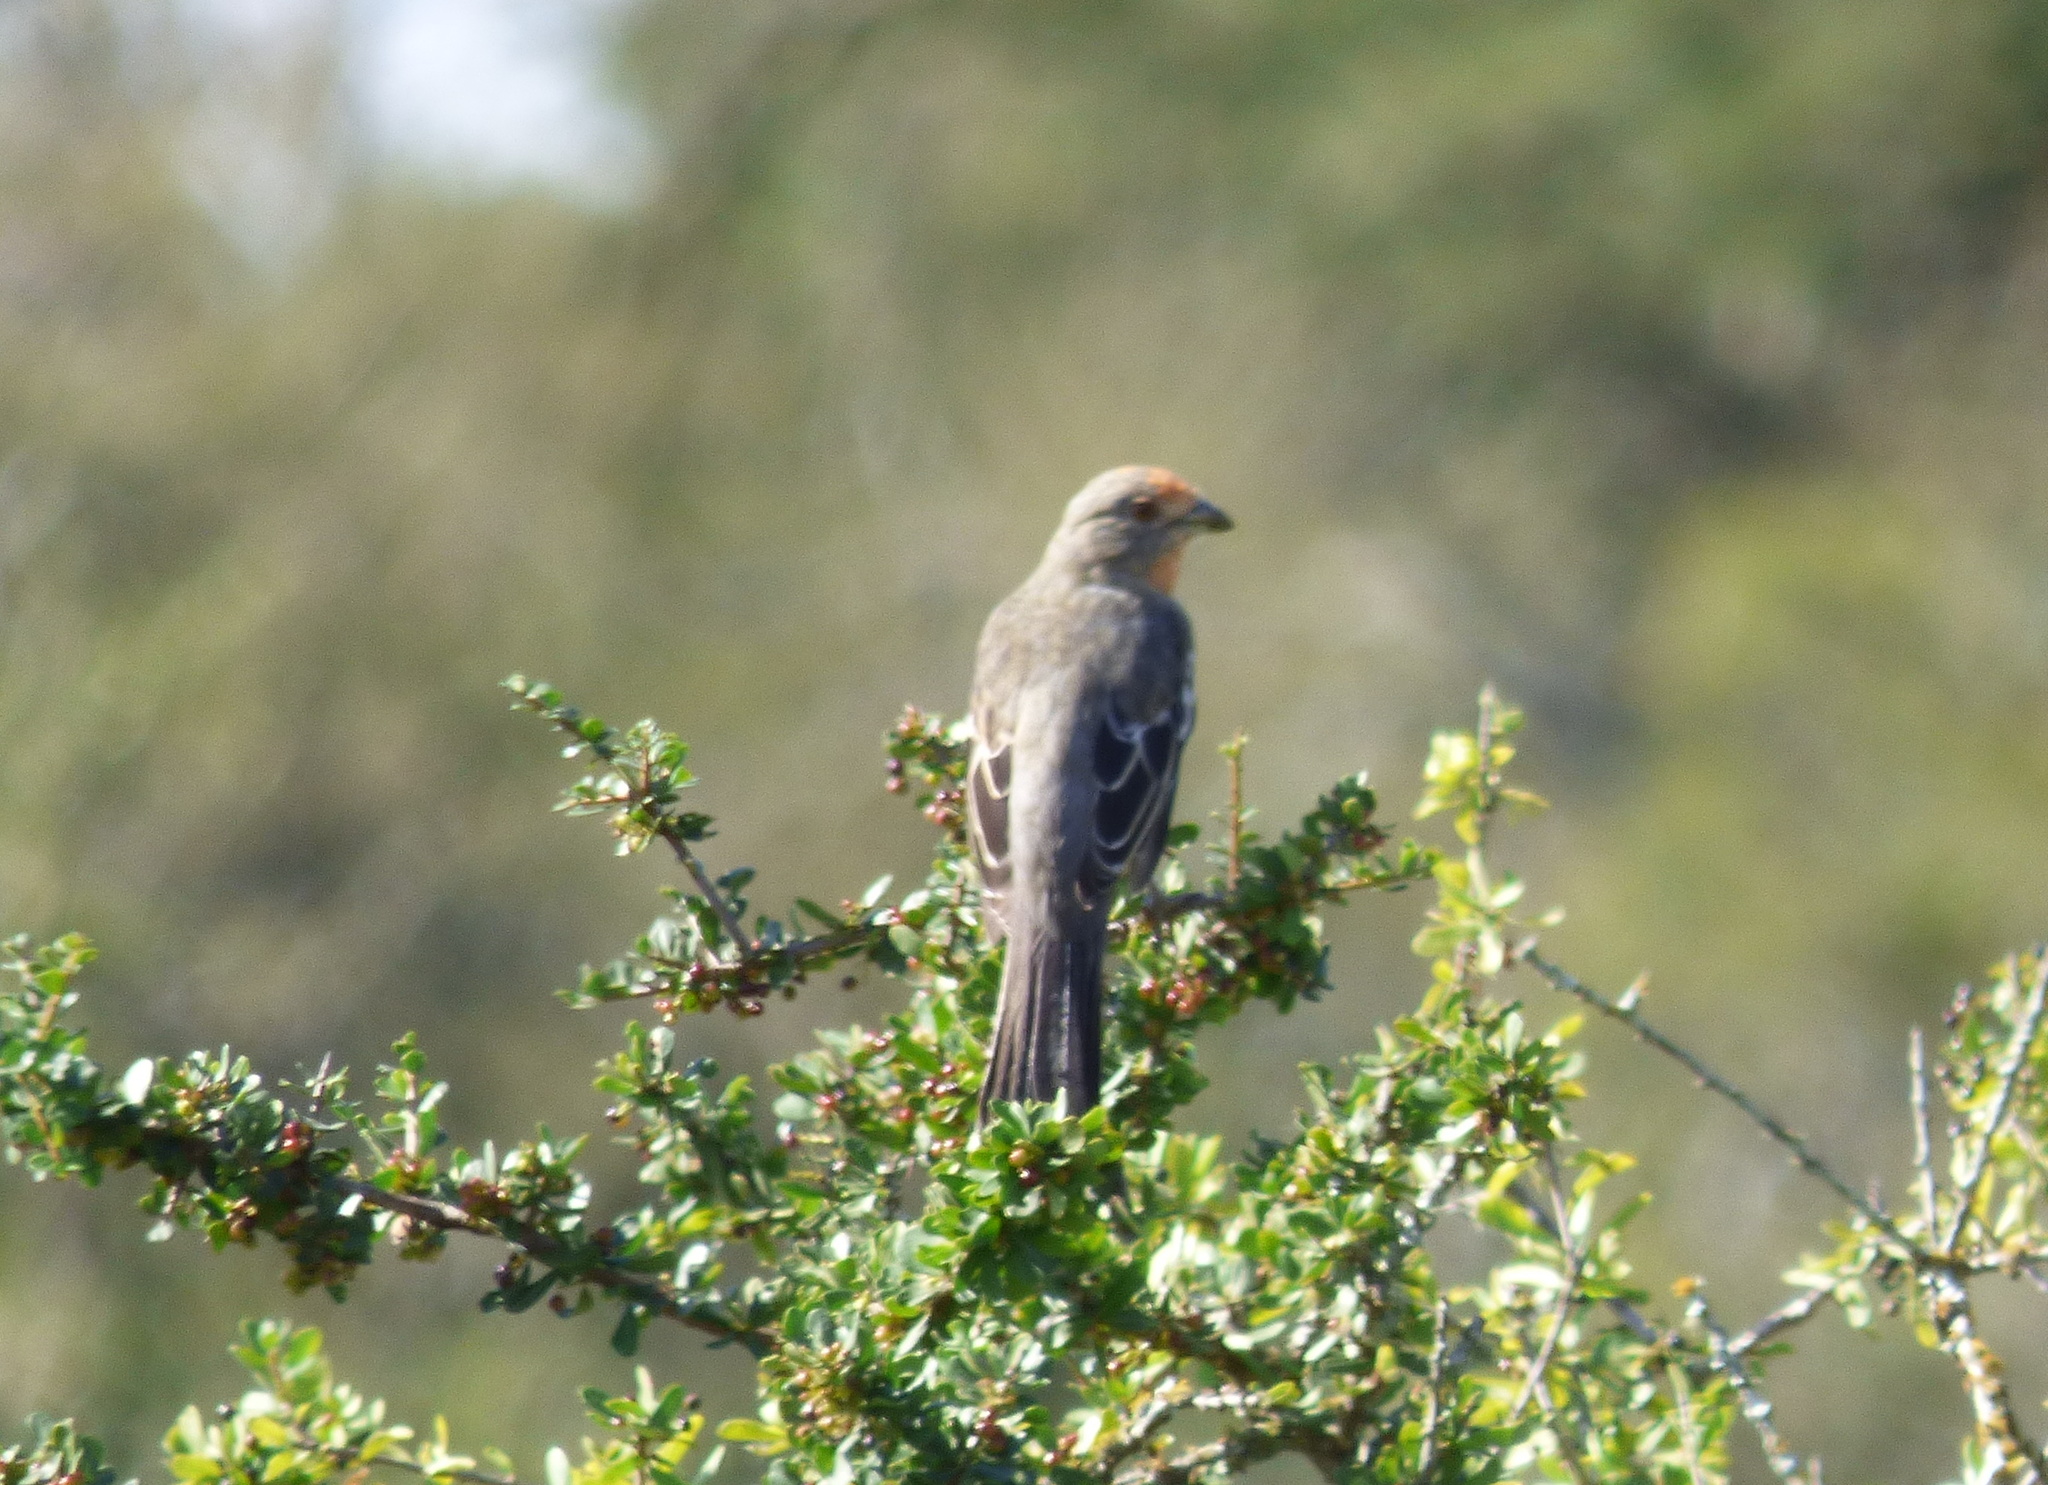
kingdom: Animalia
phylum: Chordata
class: Aves
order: Passeriformes
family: Cotingidae
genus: Phytotoma
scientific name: Phytotoma rutila
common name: White-tipped plantcutter
